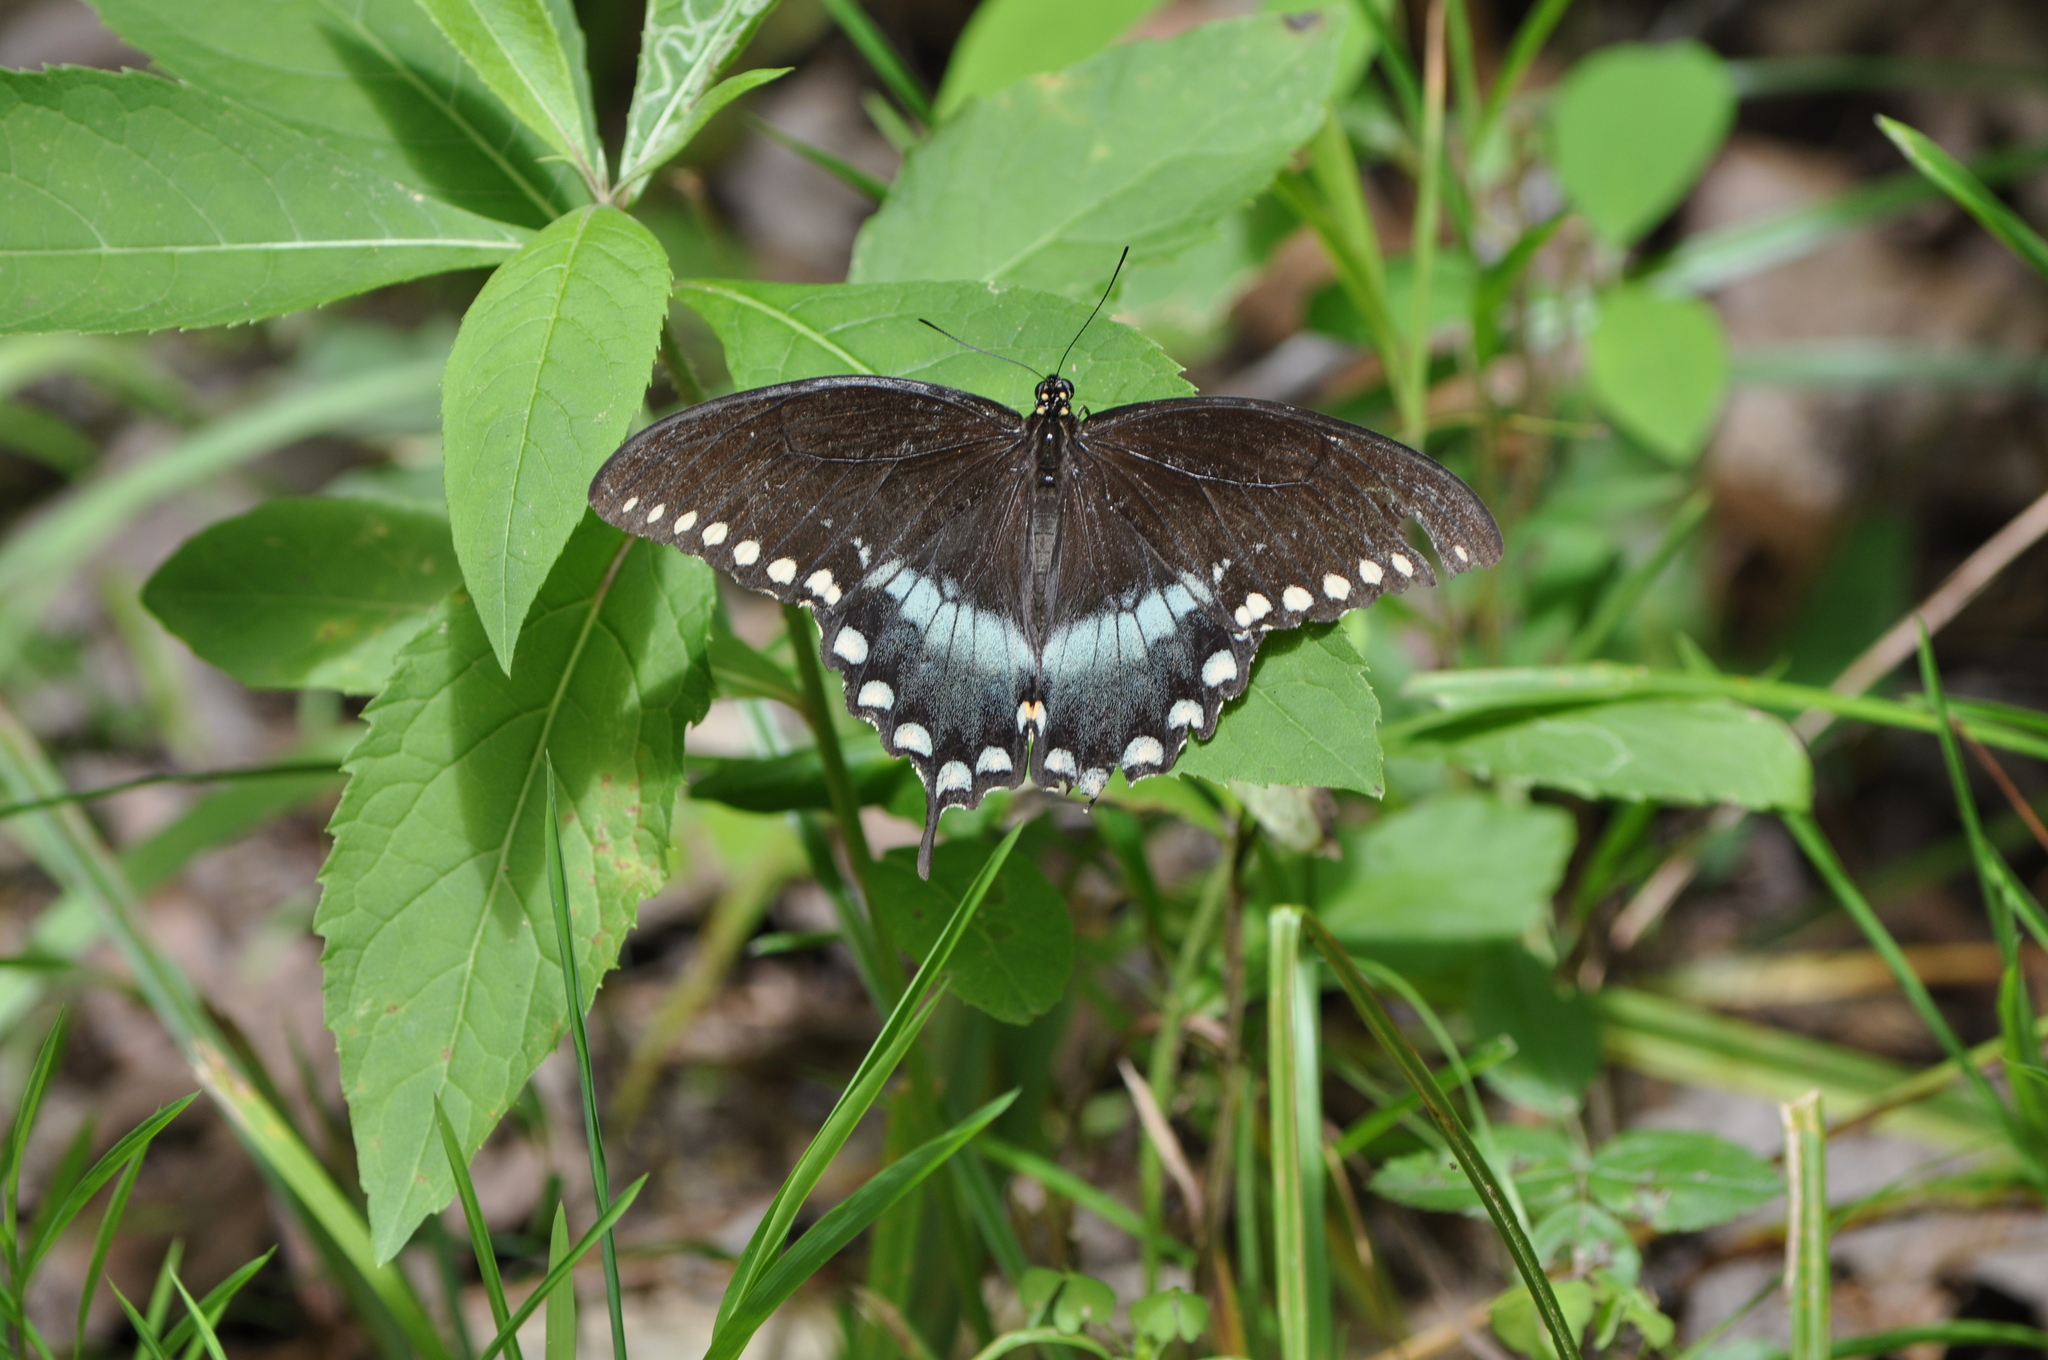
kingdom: Animalia
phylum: Arthropoda
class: Insecta
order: Lepidoptera
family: Papilionidae
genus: Papilio
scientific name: Papilio troilus
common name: Spicebush swallowtail
